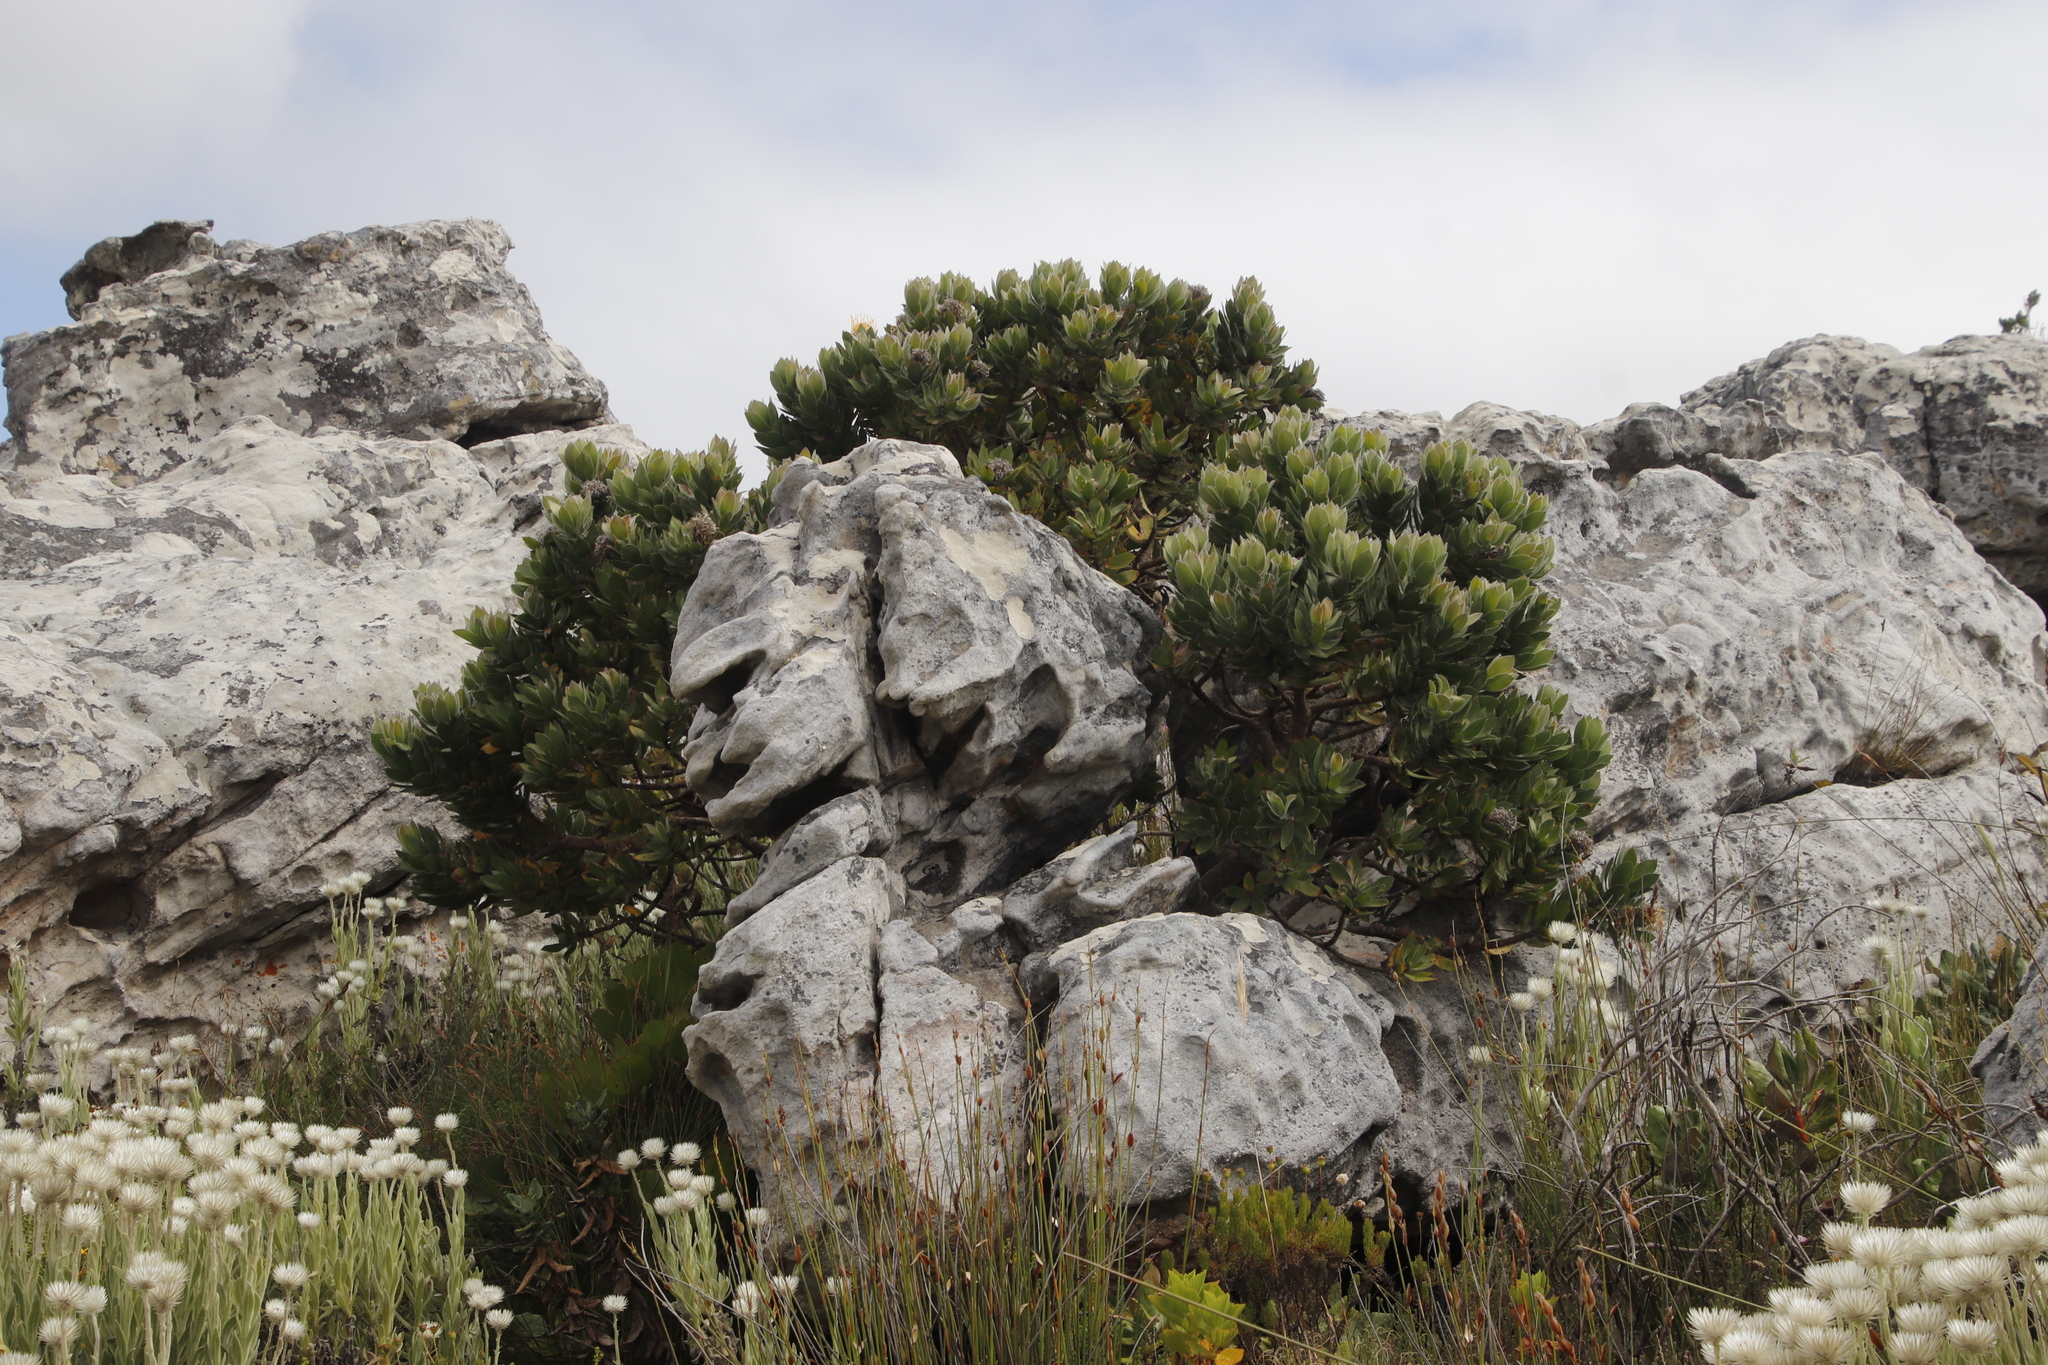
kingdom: Plantae
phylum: Tracheophyta
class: Magnoliopsida
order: Proteales
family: Proteaceae
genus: Leucospermum
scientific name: Leucospermum conocarpodendron
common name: Tree pincushion
